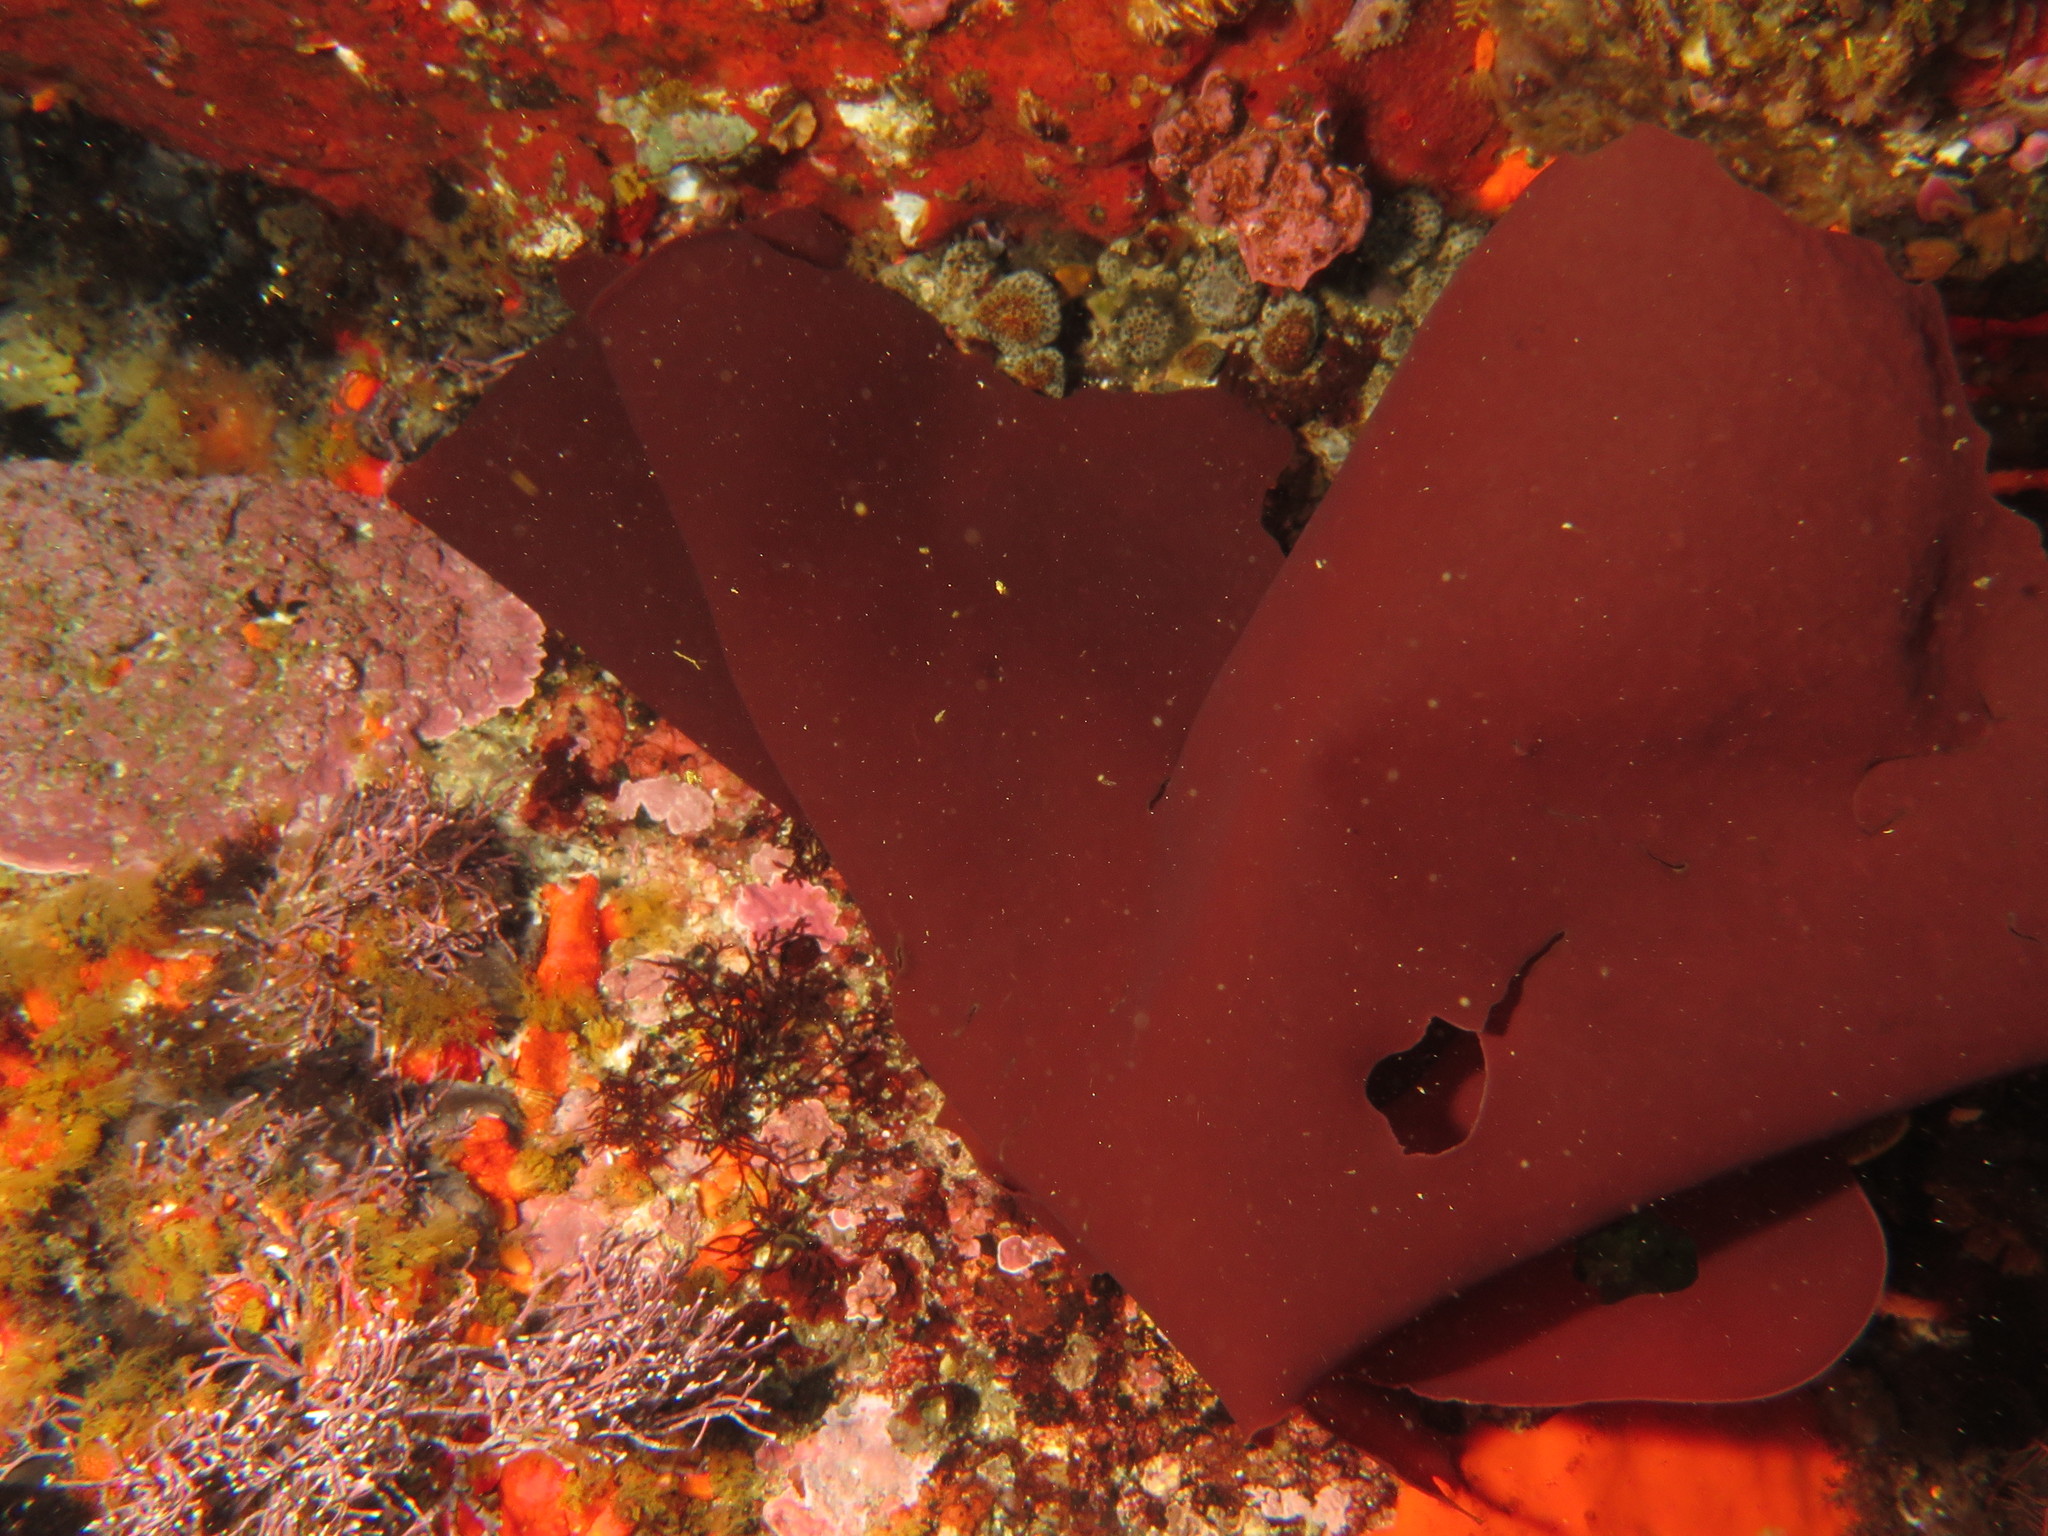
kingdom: Plantae
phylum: Rhodophyta
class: Florideophyceae
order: Halymeniales
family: Halymeniaceae
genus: Pachymenia
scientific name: Pachymenia carnosa
